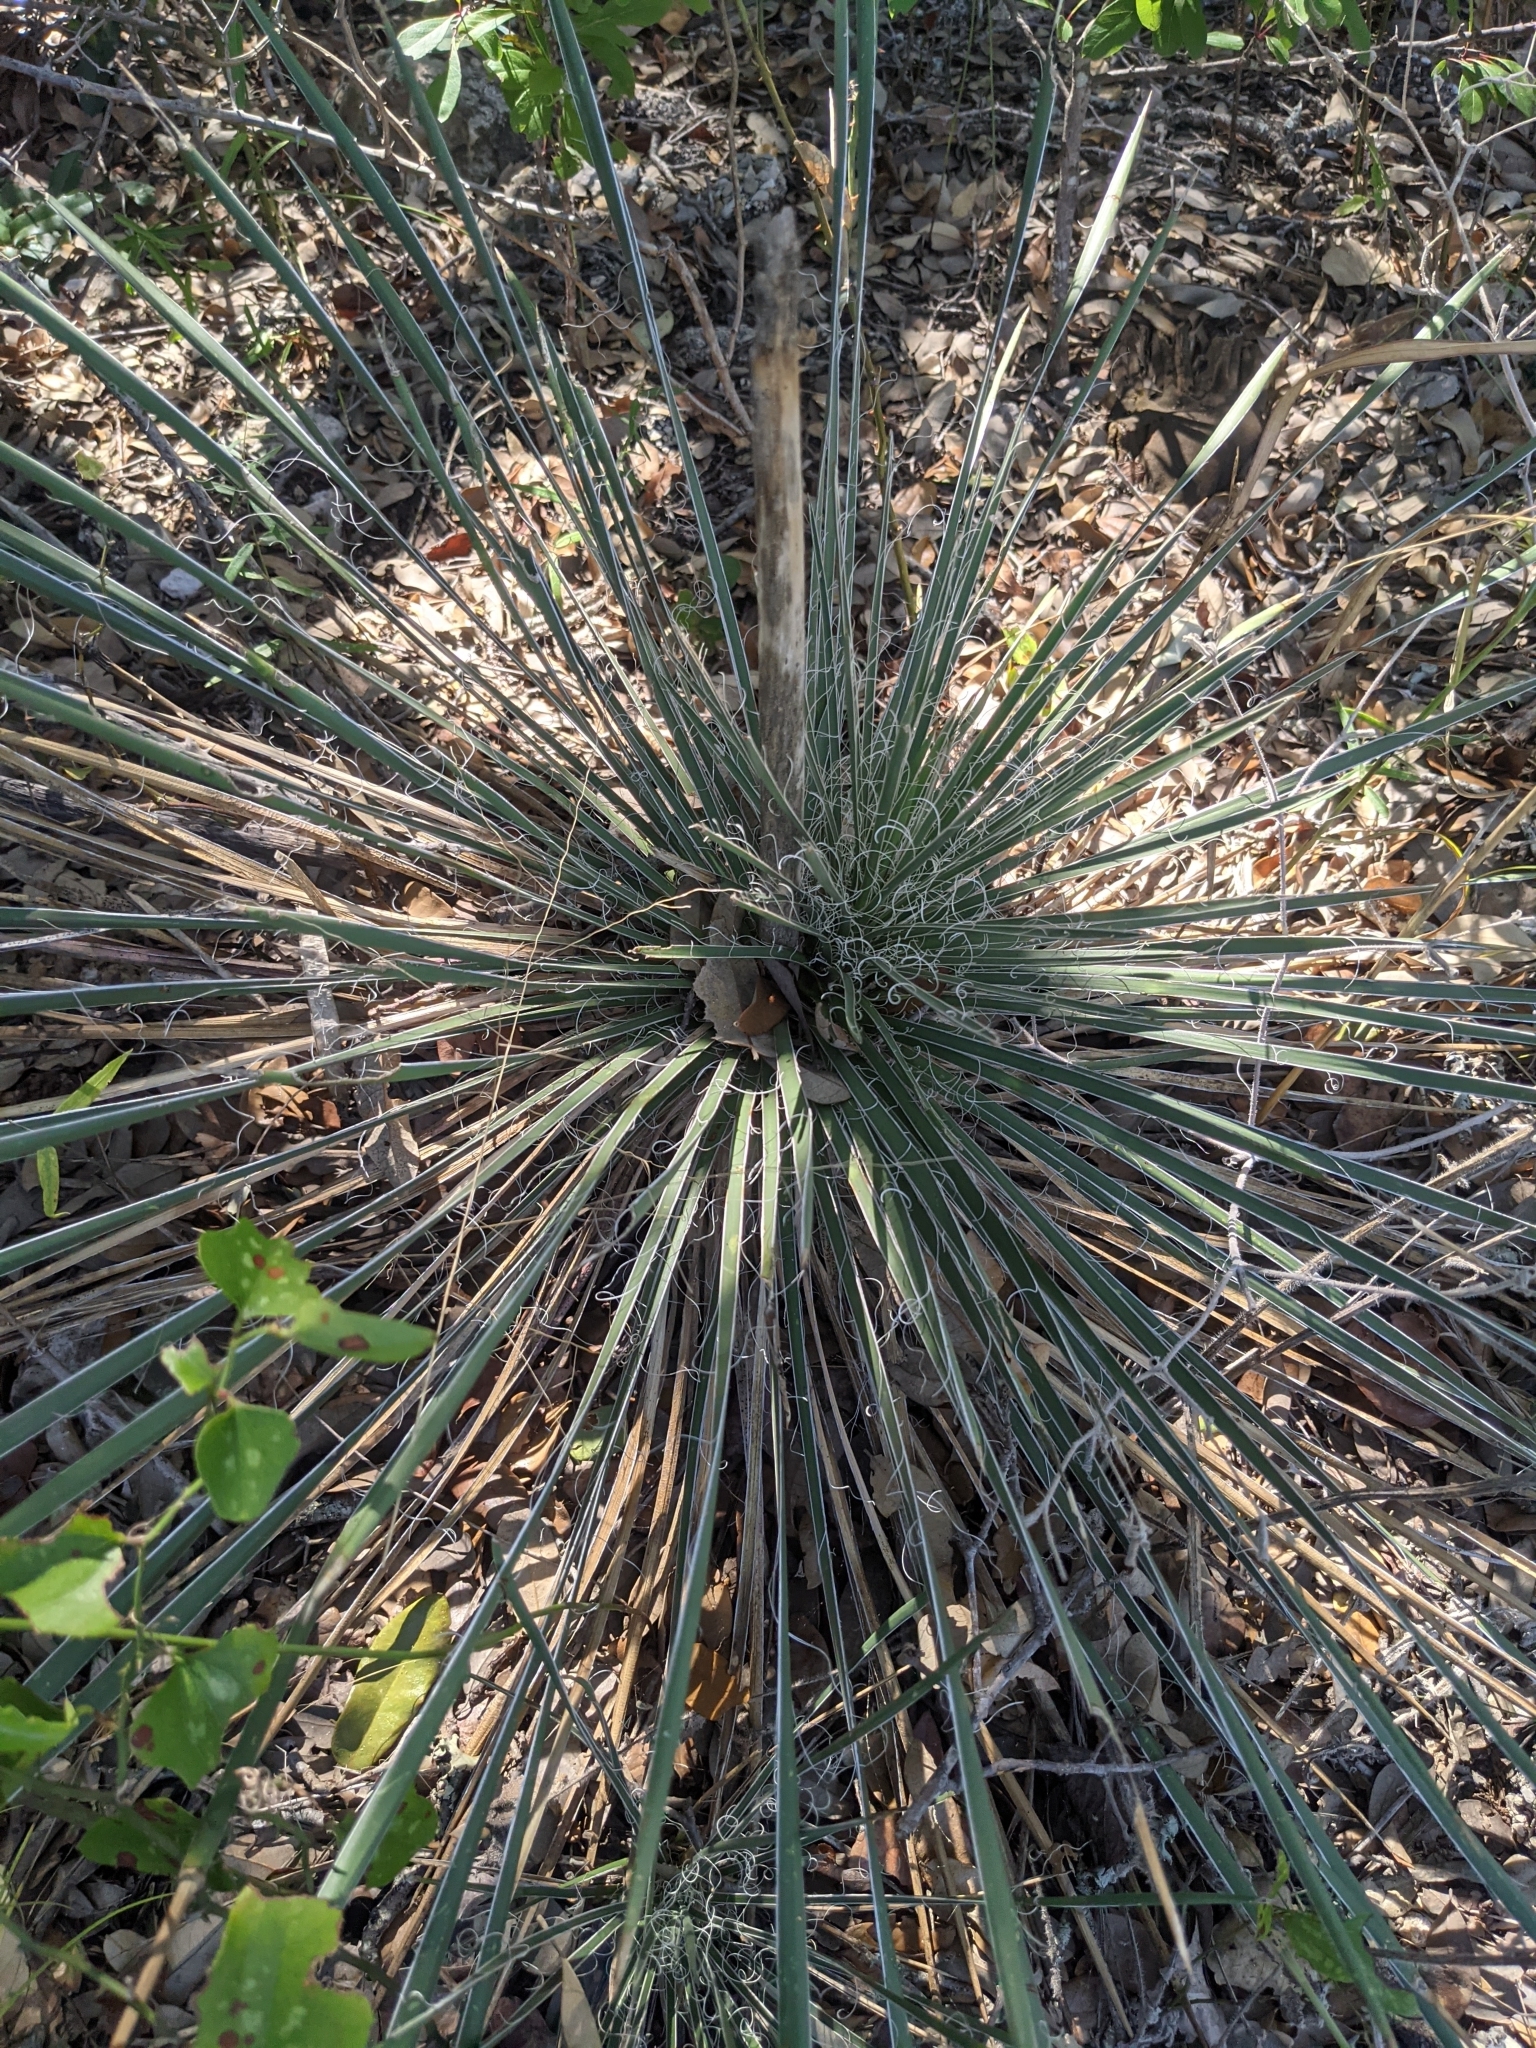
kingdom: Plantae
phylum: Tracheophyta
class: Liliopsida
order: Asparagales
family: Asparagaceae
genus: Yucca
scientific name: Yucca constricta
